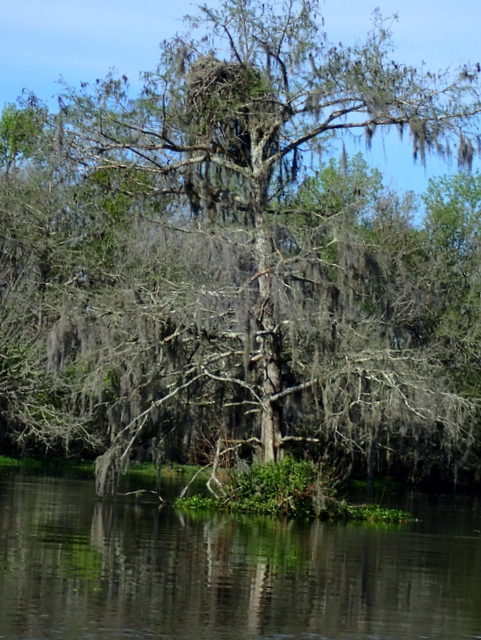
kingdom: Animalia
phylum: Chordata
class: Aves
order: Accipitriformes
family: Pandionidae
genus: Pandion
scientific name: Pandion haliaetus
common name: Osprey
